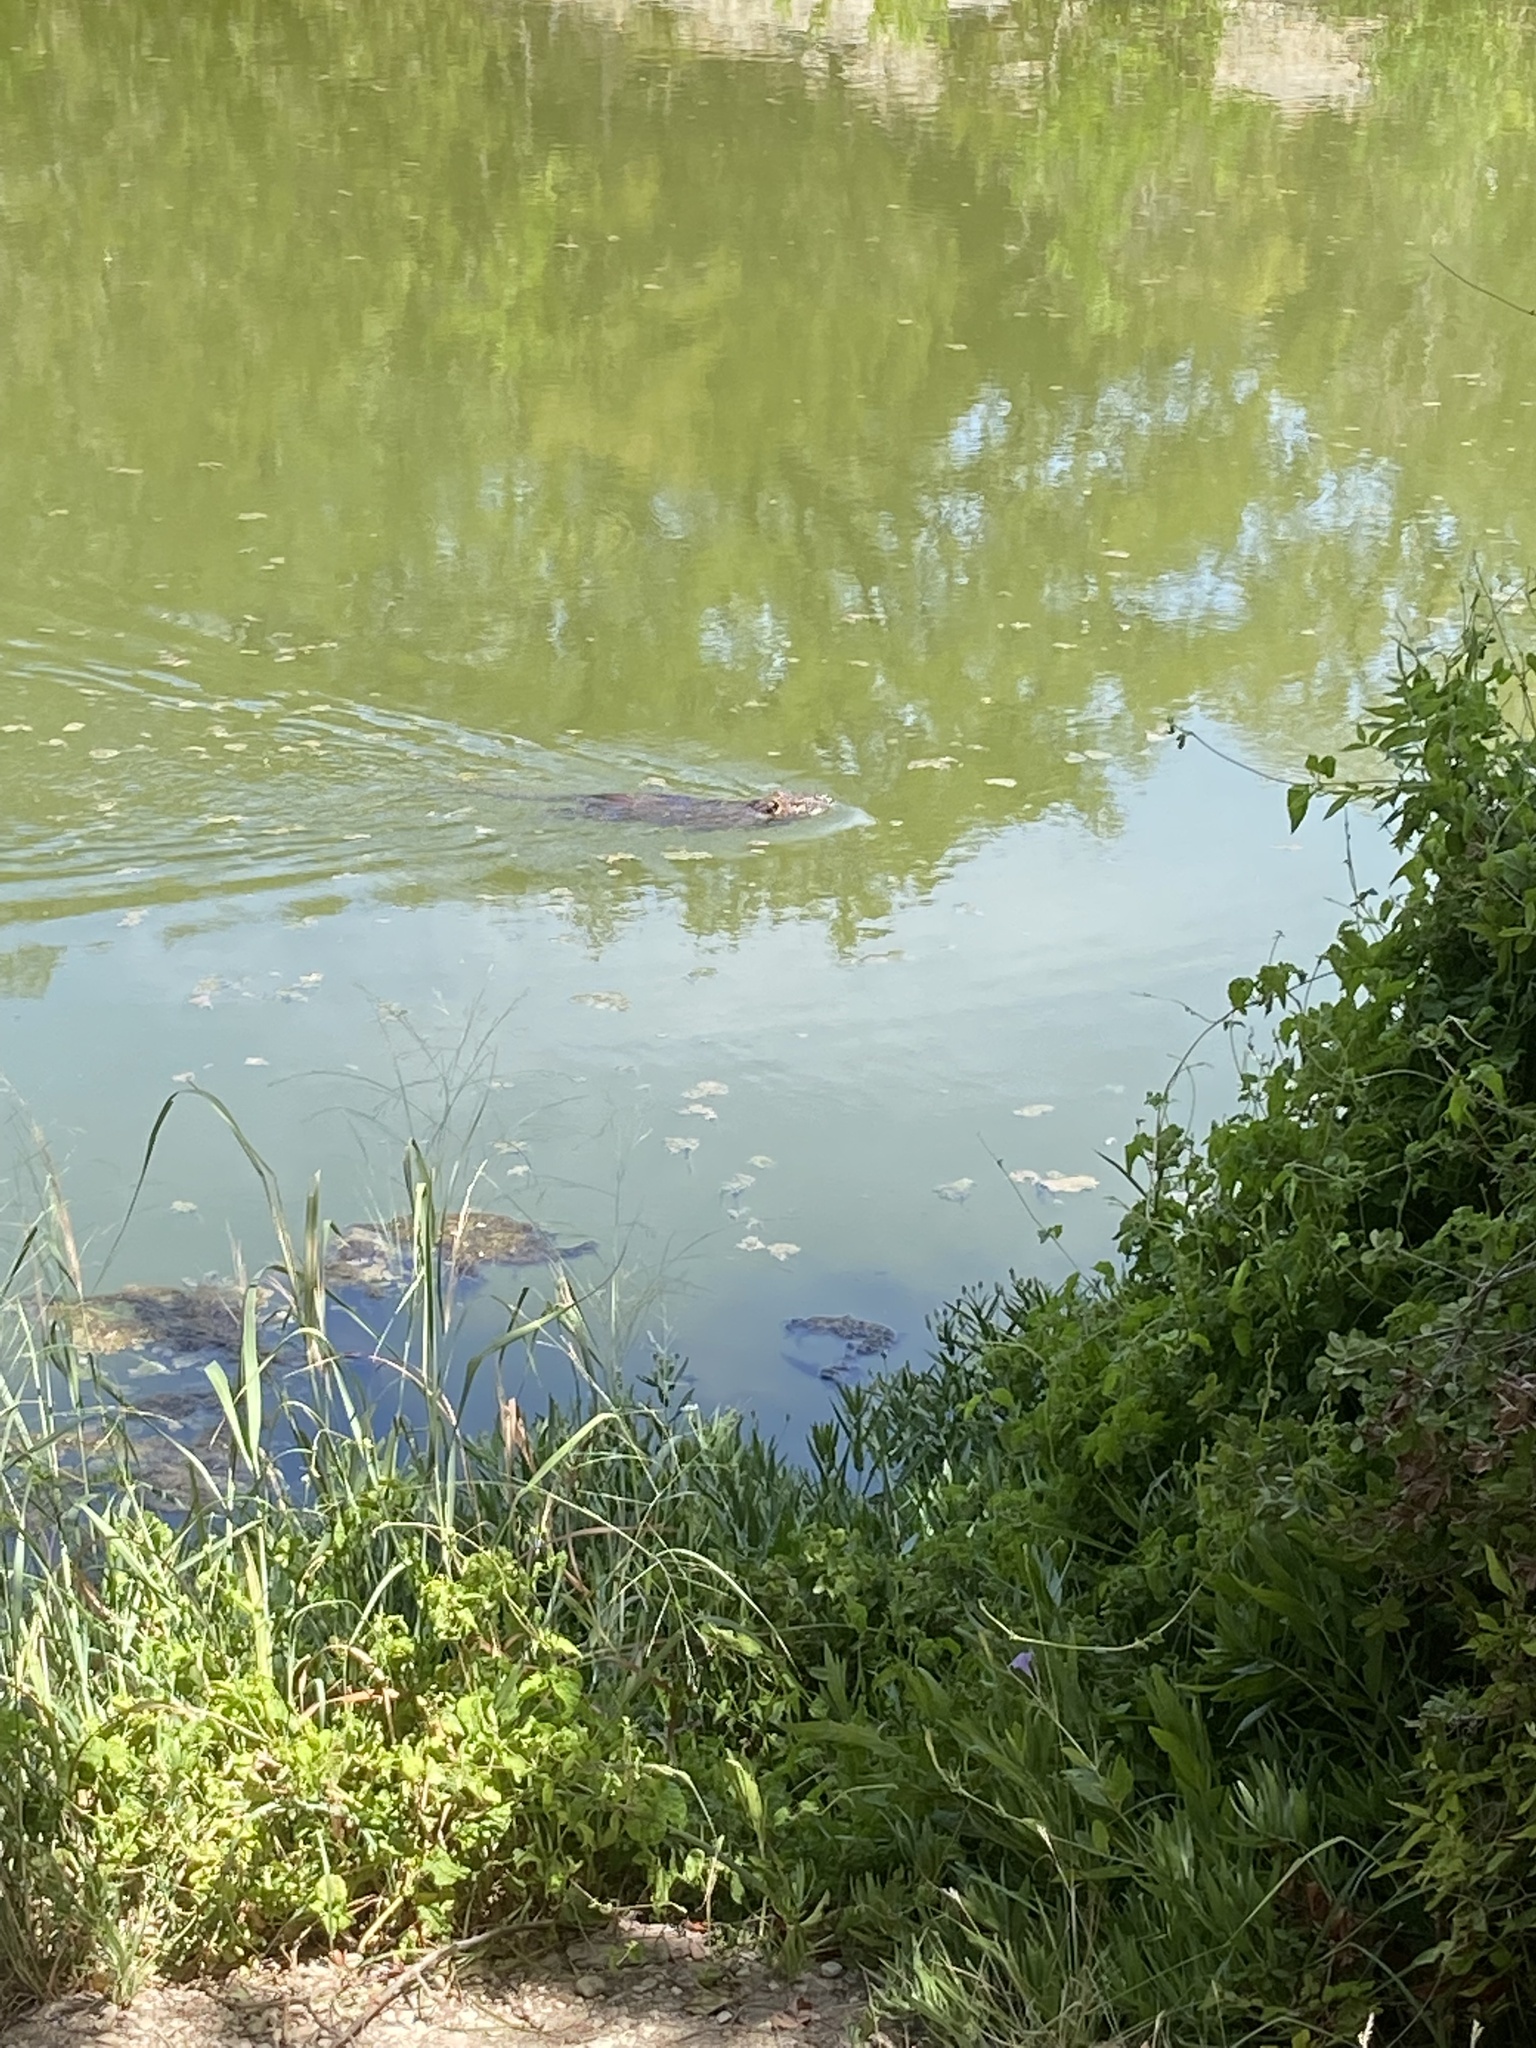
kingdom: Animalia
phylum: Chordata
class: Mammalia
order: Rodentia
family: Myocastoridae
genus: Myocastor
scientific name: Myocastor coypus
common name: Coypu
